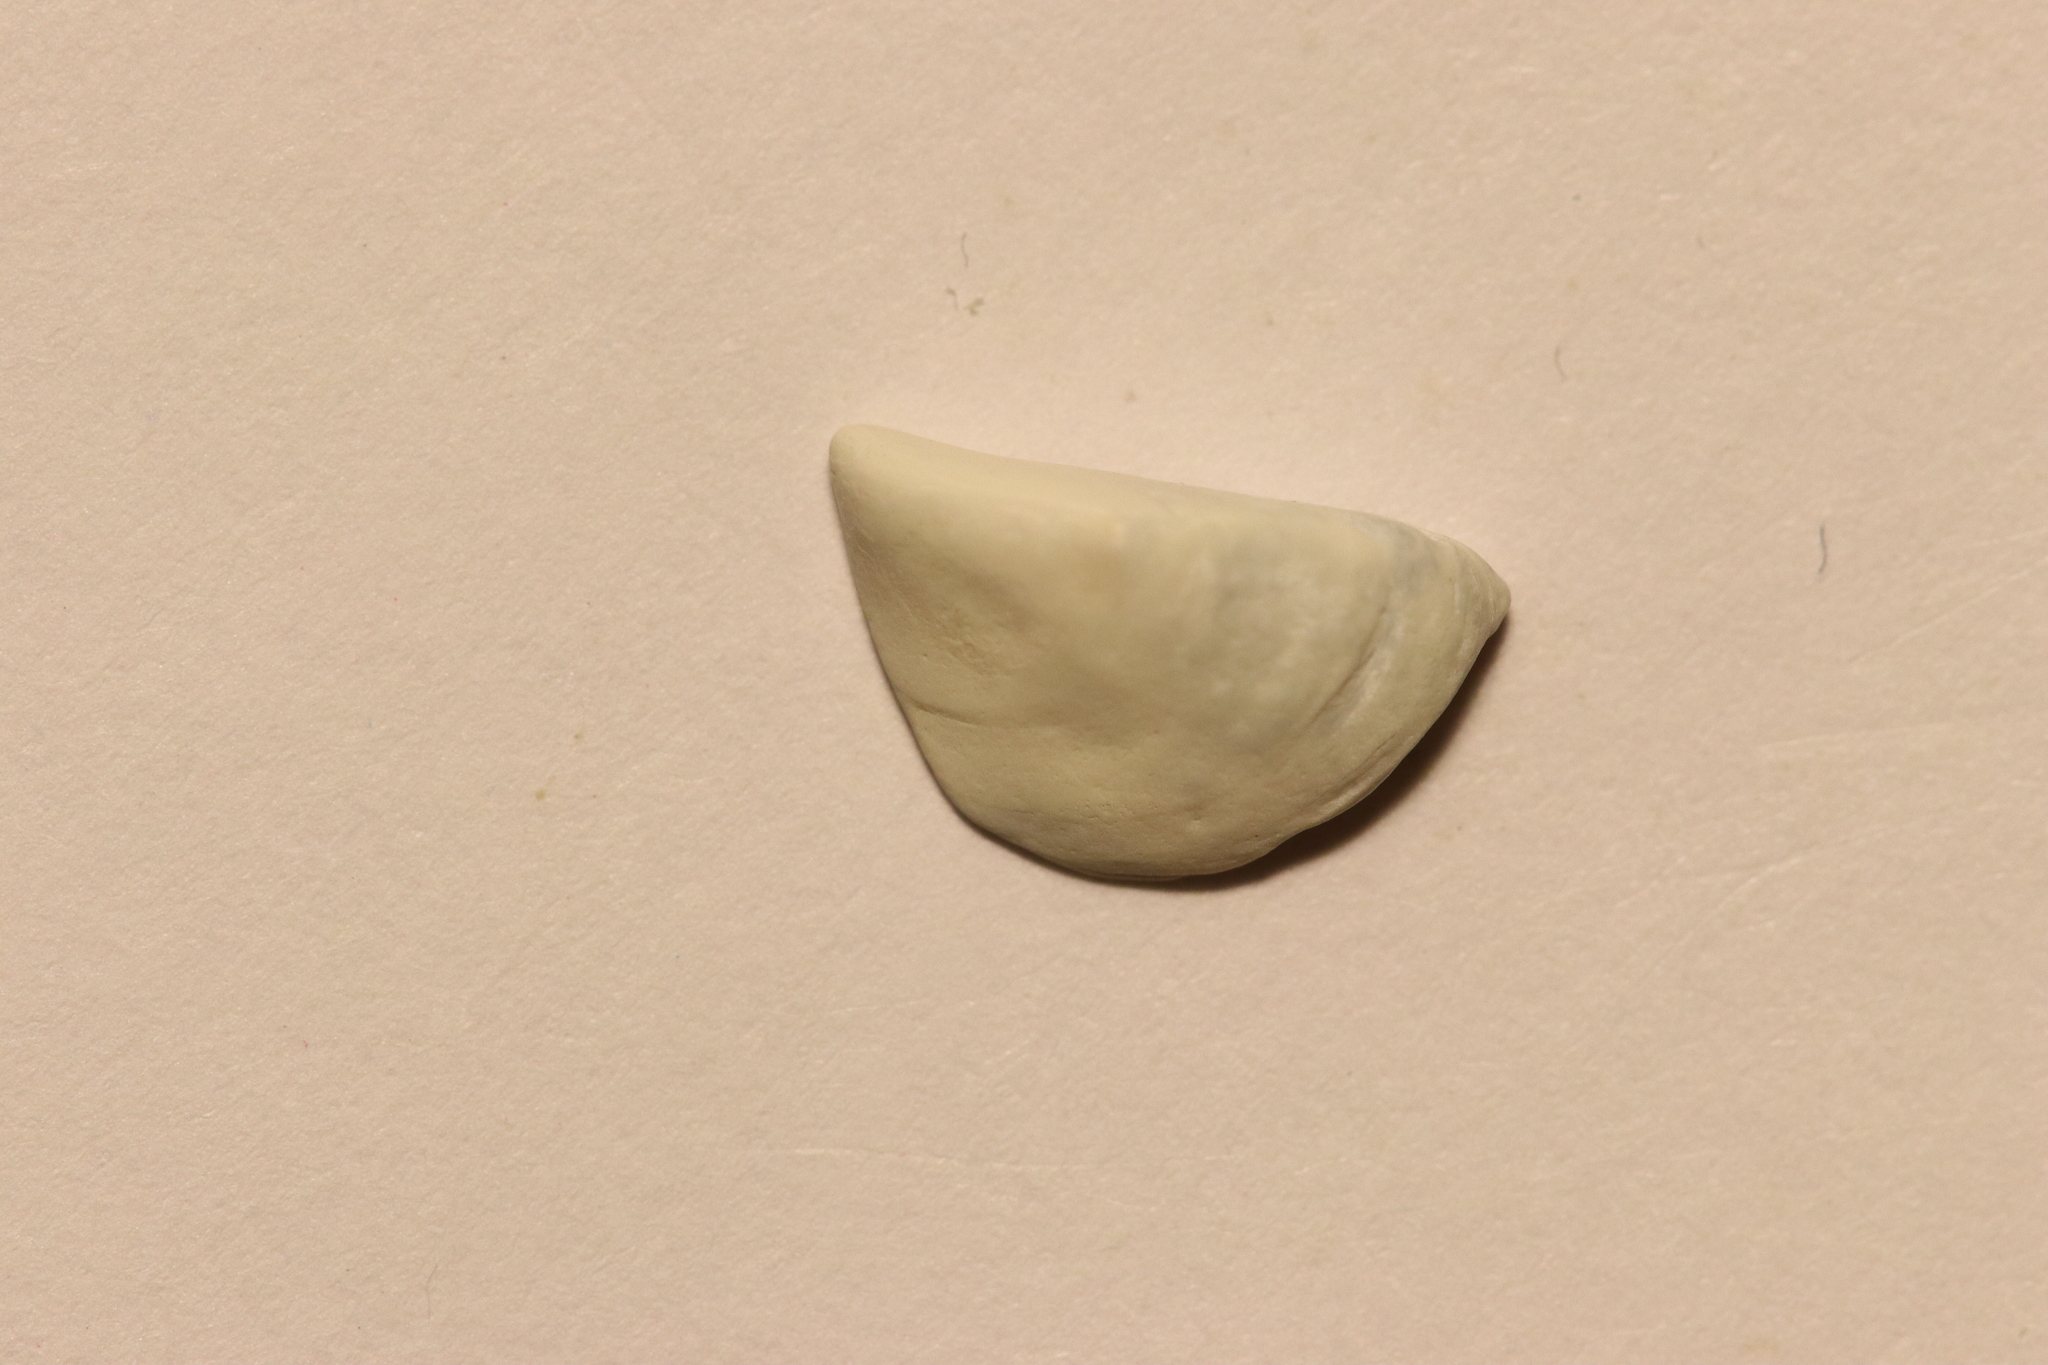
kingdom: Animalia
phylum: Mollusca
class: Bivalvia
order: Myida
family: Dreissenidae
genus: Dreissena
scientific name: Dreissena polymorpha
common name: Zebra mussel
